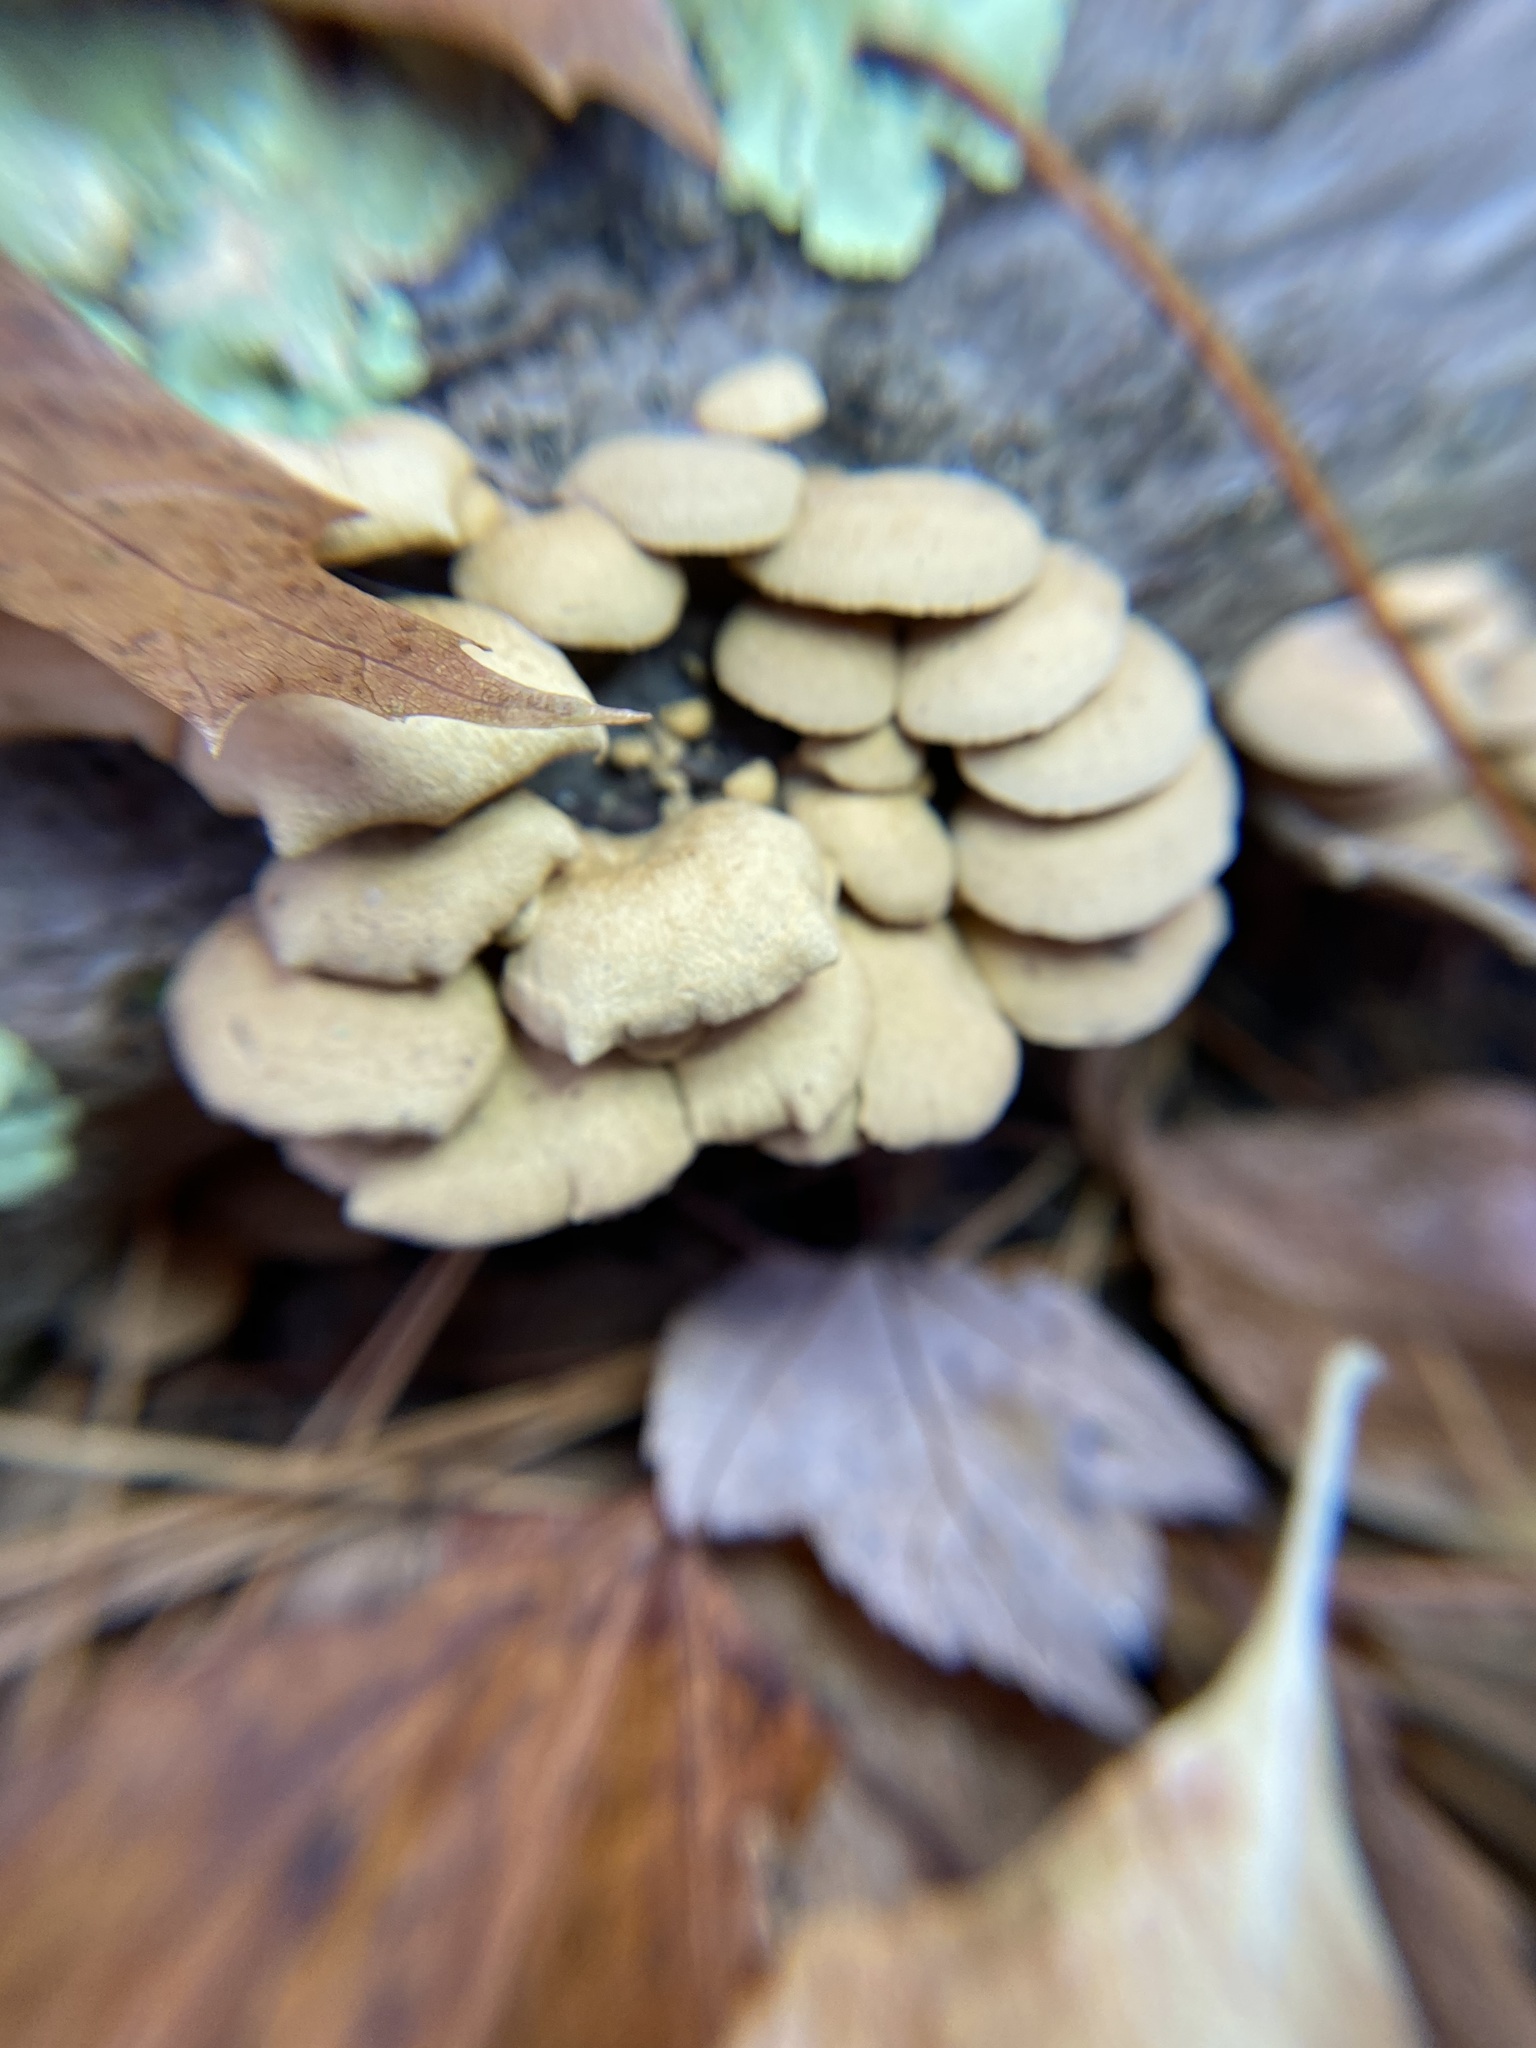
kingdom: Fungi
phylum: Basidiomycota
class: Agaricomycetes
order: Agaricales
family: Mycenaceae
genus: Panellus
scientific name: Panellus stipticus
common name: Bitter oysterling
